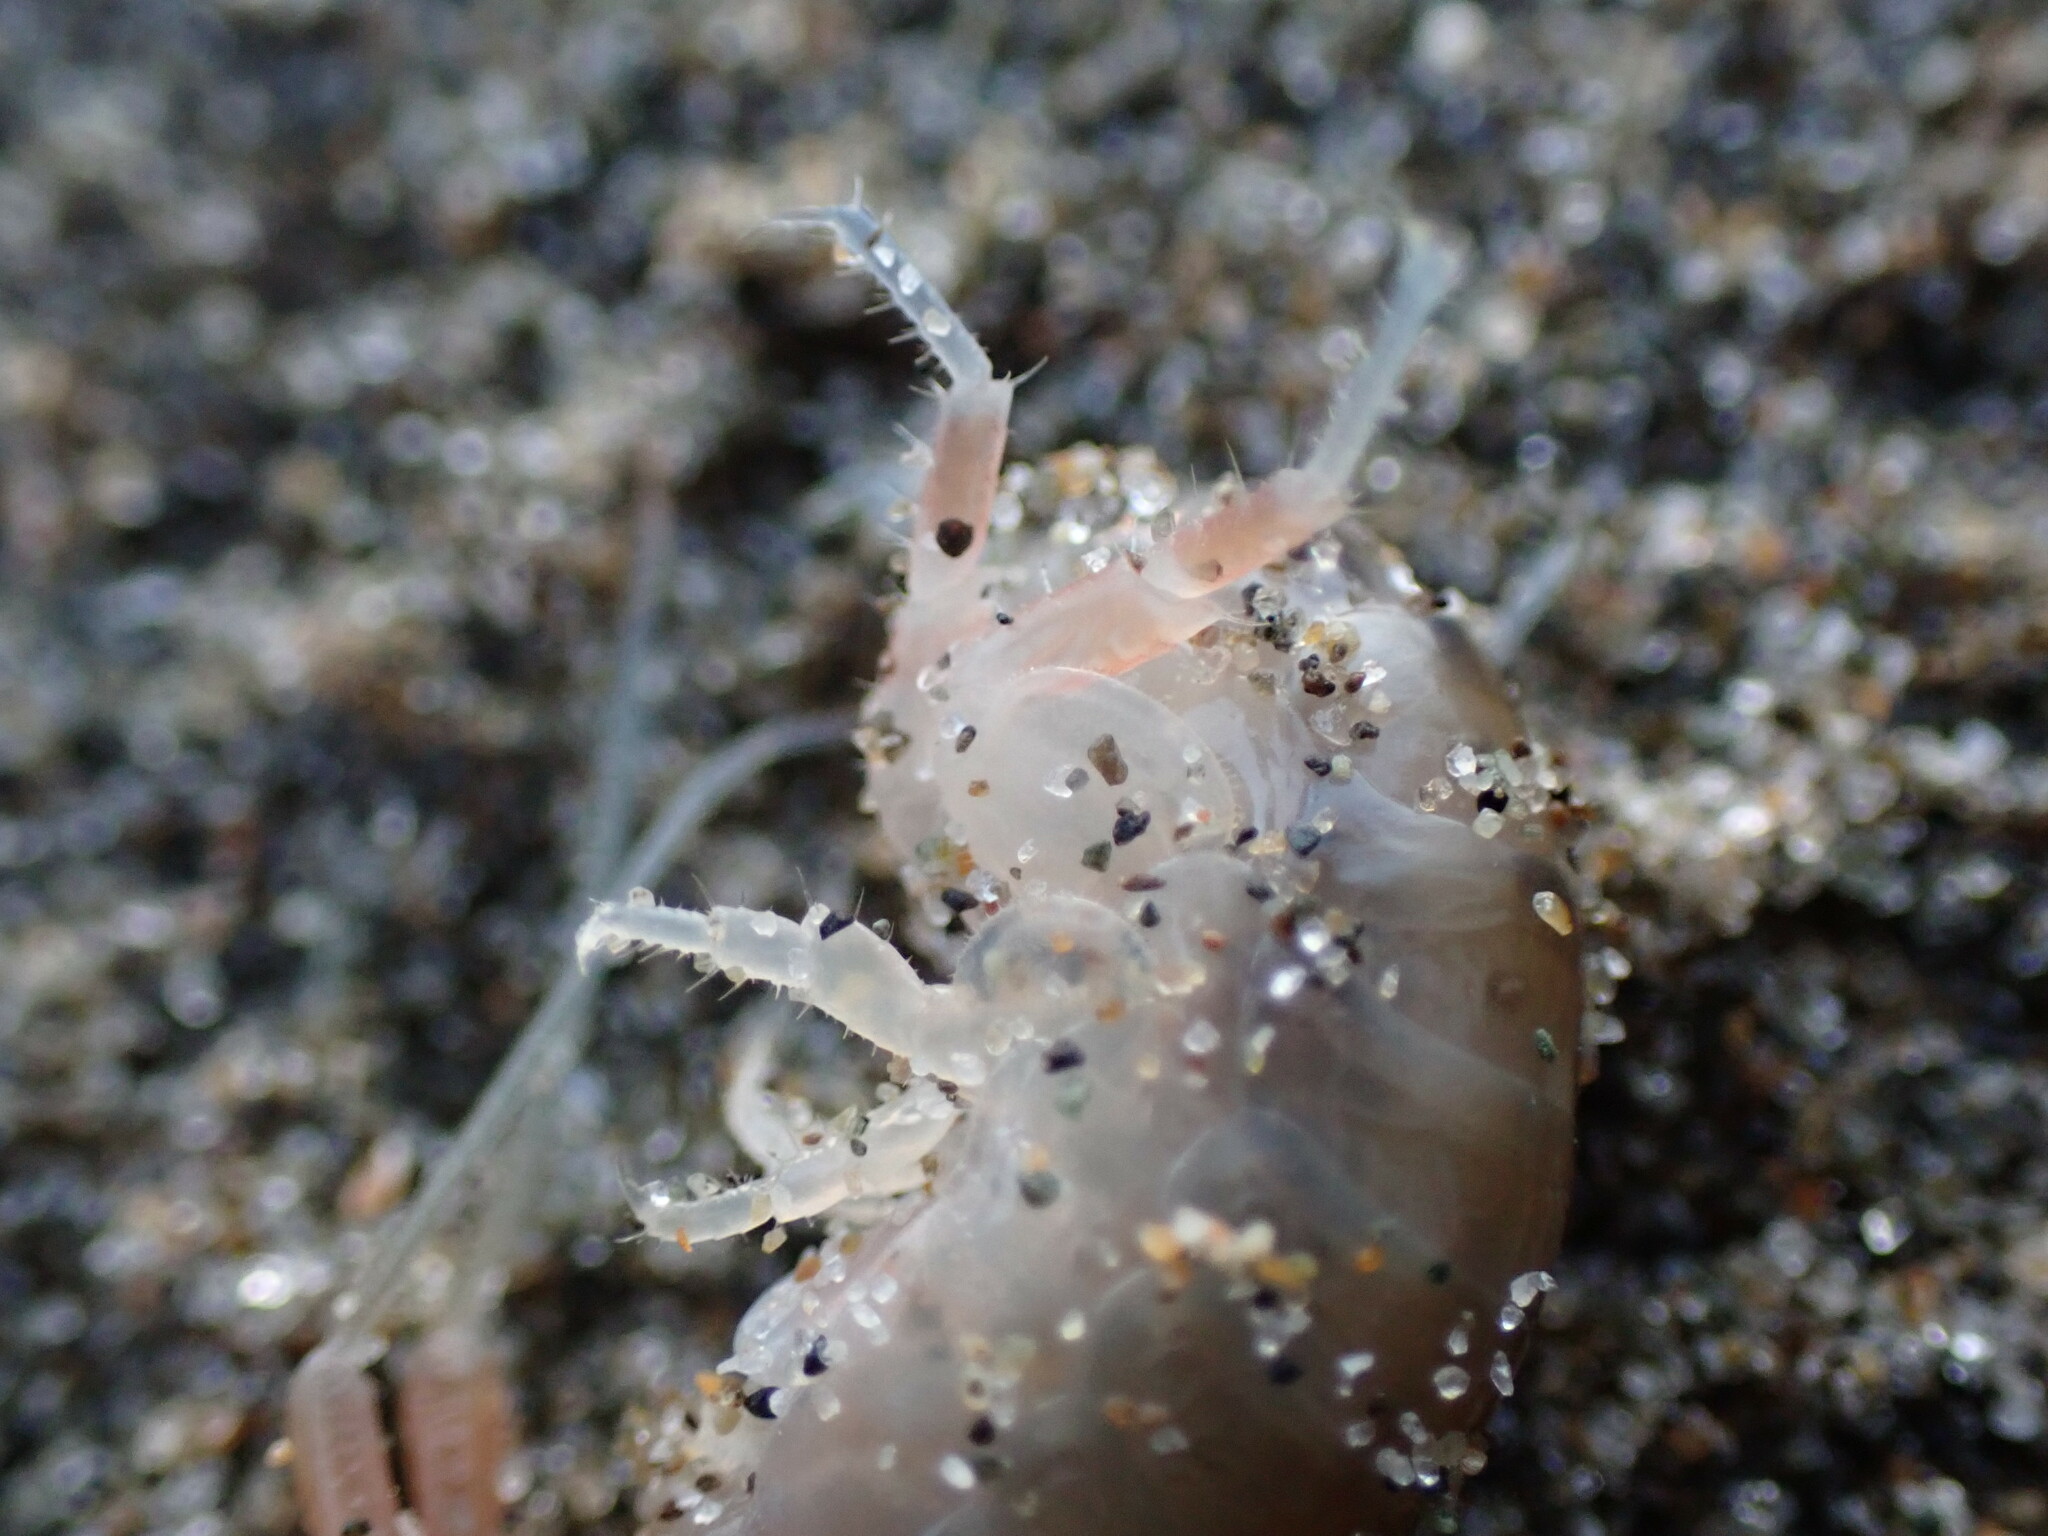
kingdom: Animalia
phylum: Arthropoda
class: Malacostraca
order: Amphipoda
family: Talitridae
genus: Megalorchestia
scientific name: Megalorchestia californiana
